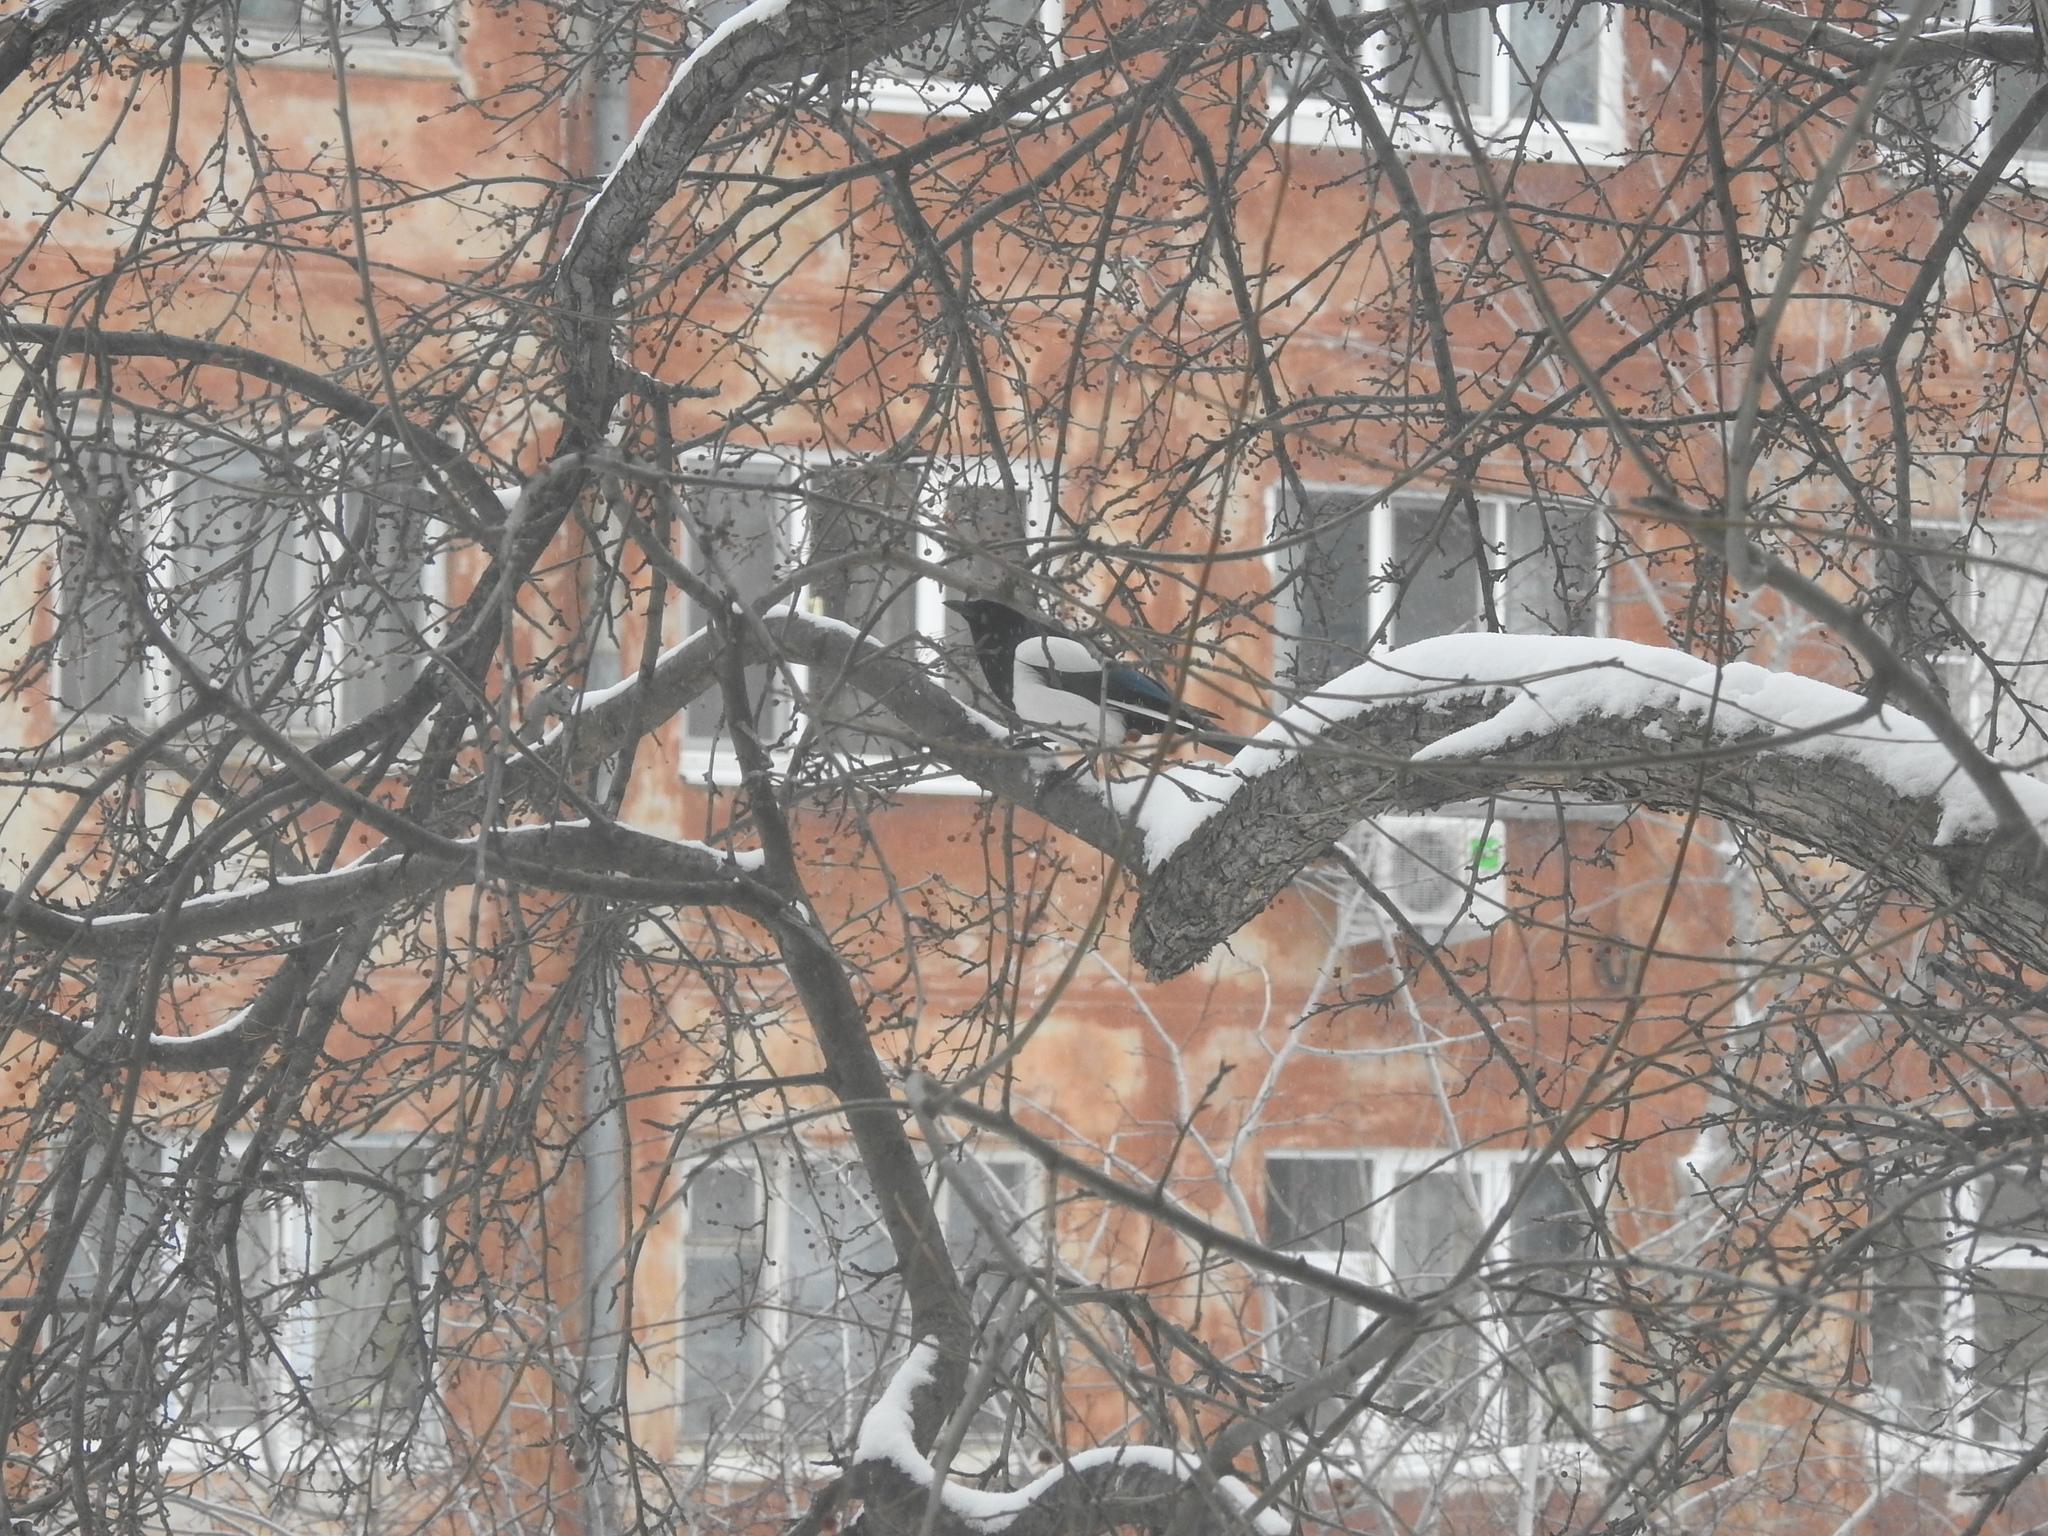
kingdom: Animalia
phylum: Chordata
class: Aves
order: Passeriformes
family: Corvidae
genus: Pica
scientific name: Pica pica
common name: Eurasian magpie
